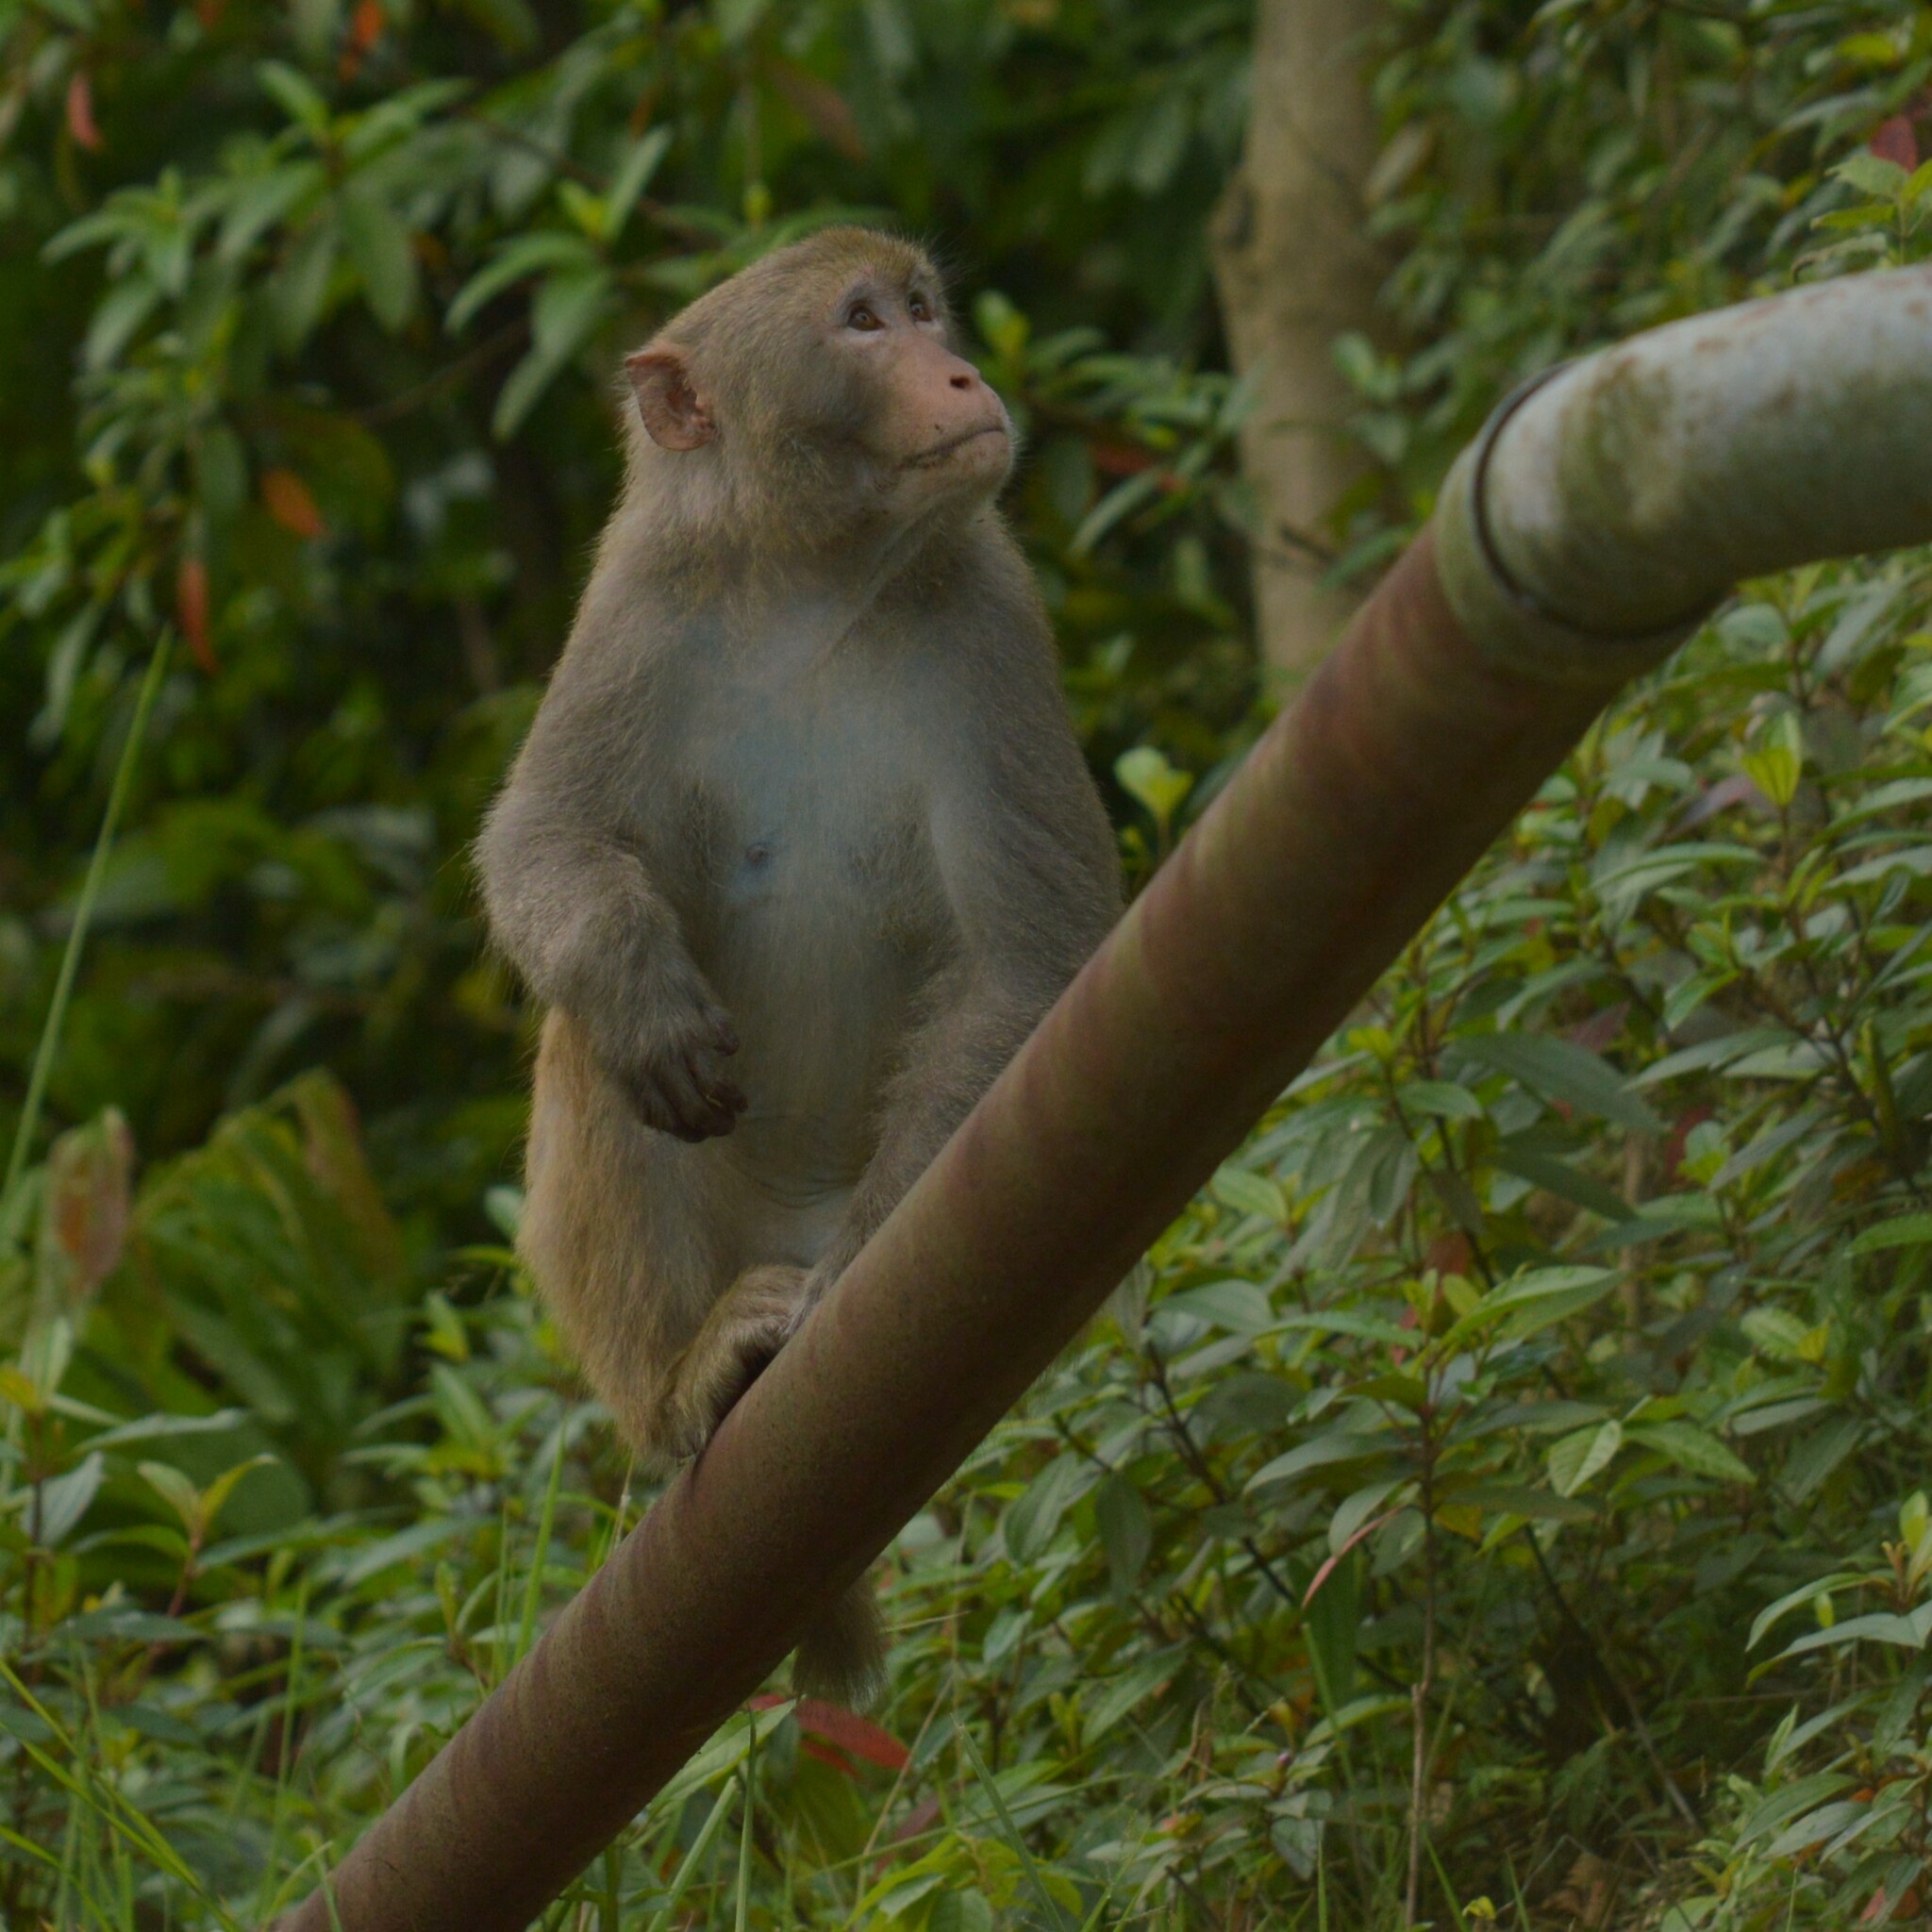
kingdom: Animalia
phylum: Chordata
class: Mammalia
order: Primates
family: Cercopithecidae
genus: Macaca
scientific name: Macaca mulatta
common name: Rhesus monkey
